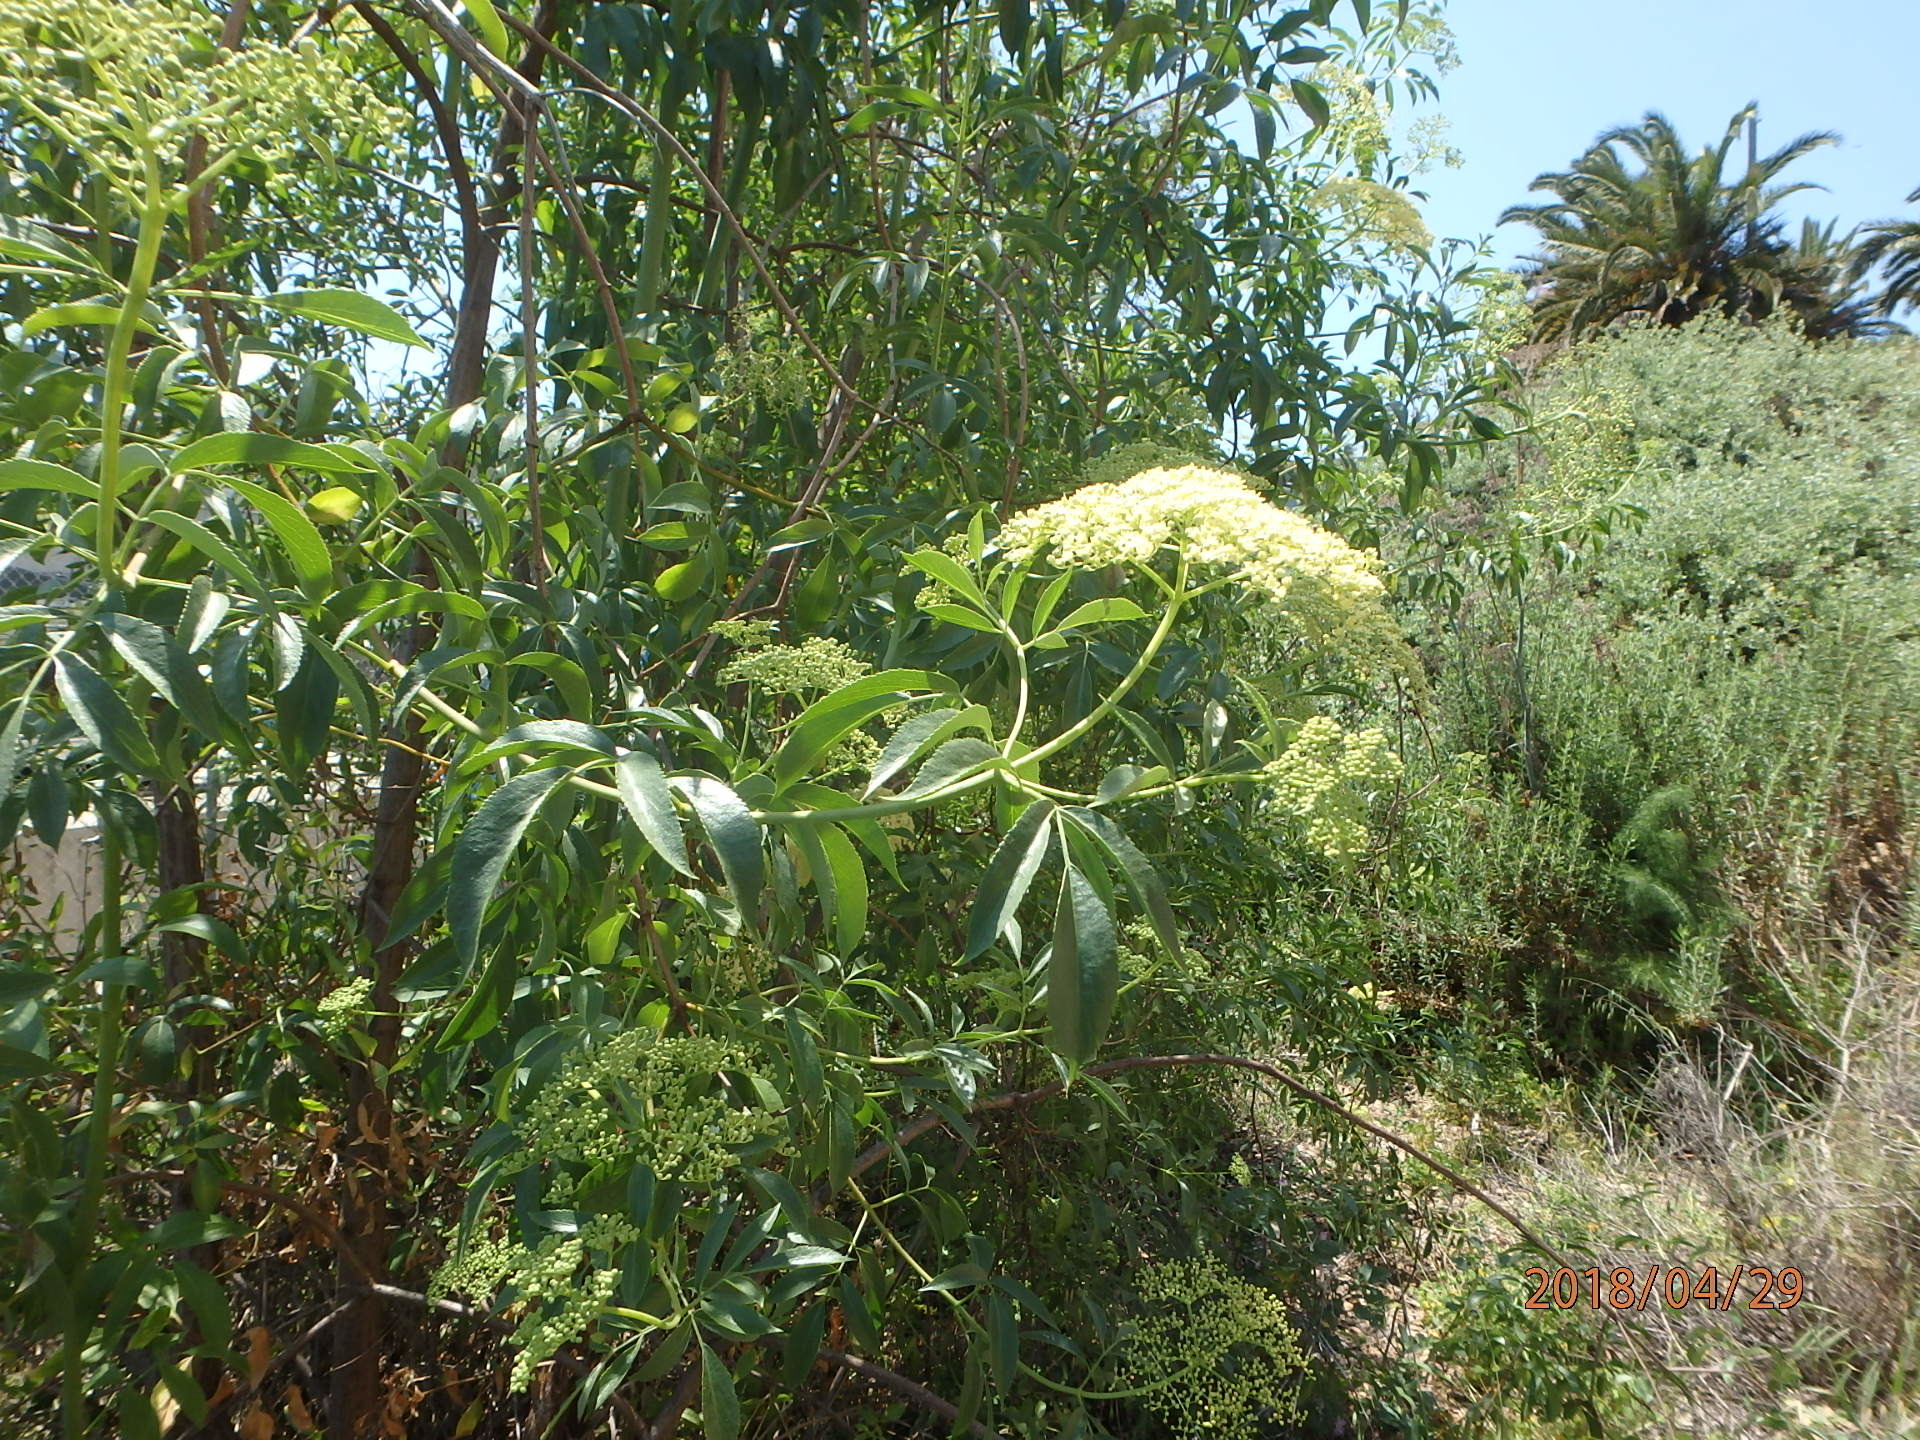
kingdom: Plantae
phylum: Tracheophyta
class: Magnoliopsida
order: Dipsacales
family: Viburnaceae
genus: Sambucus
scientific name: Sambucus cerulea
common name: Blue elder
